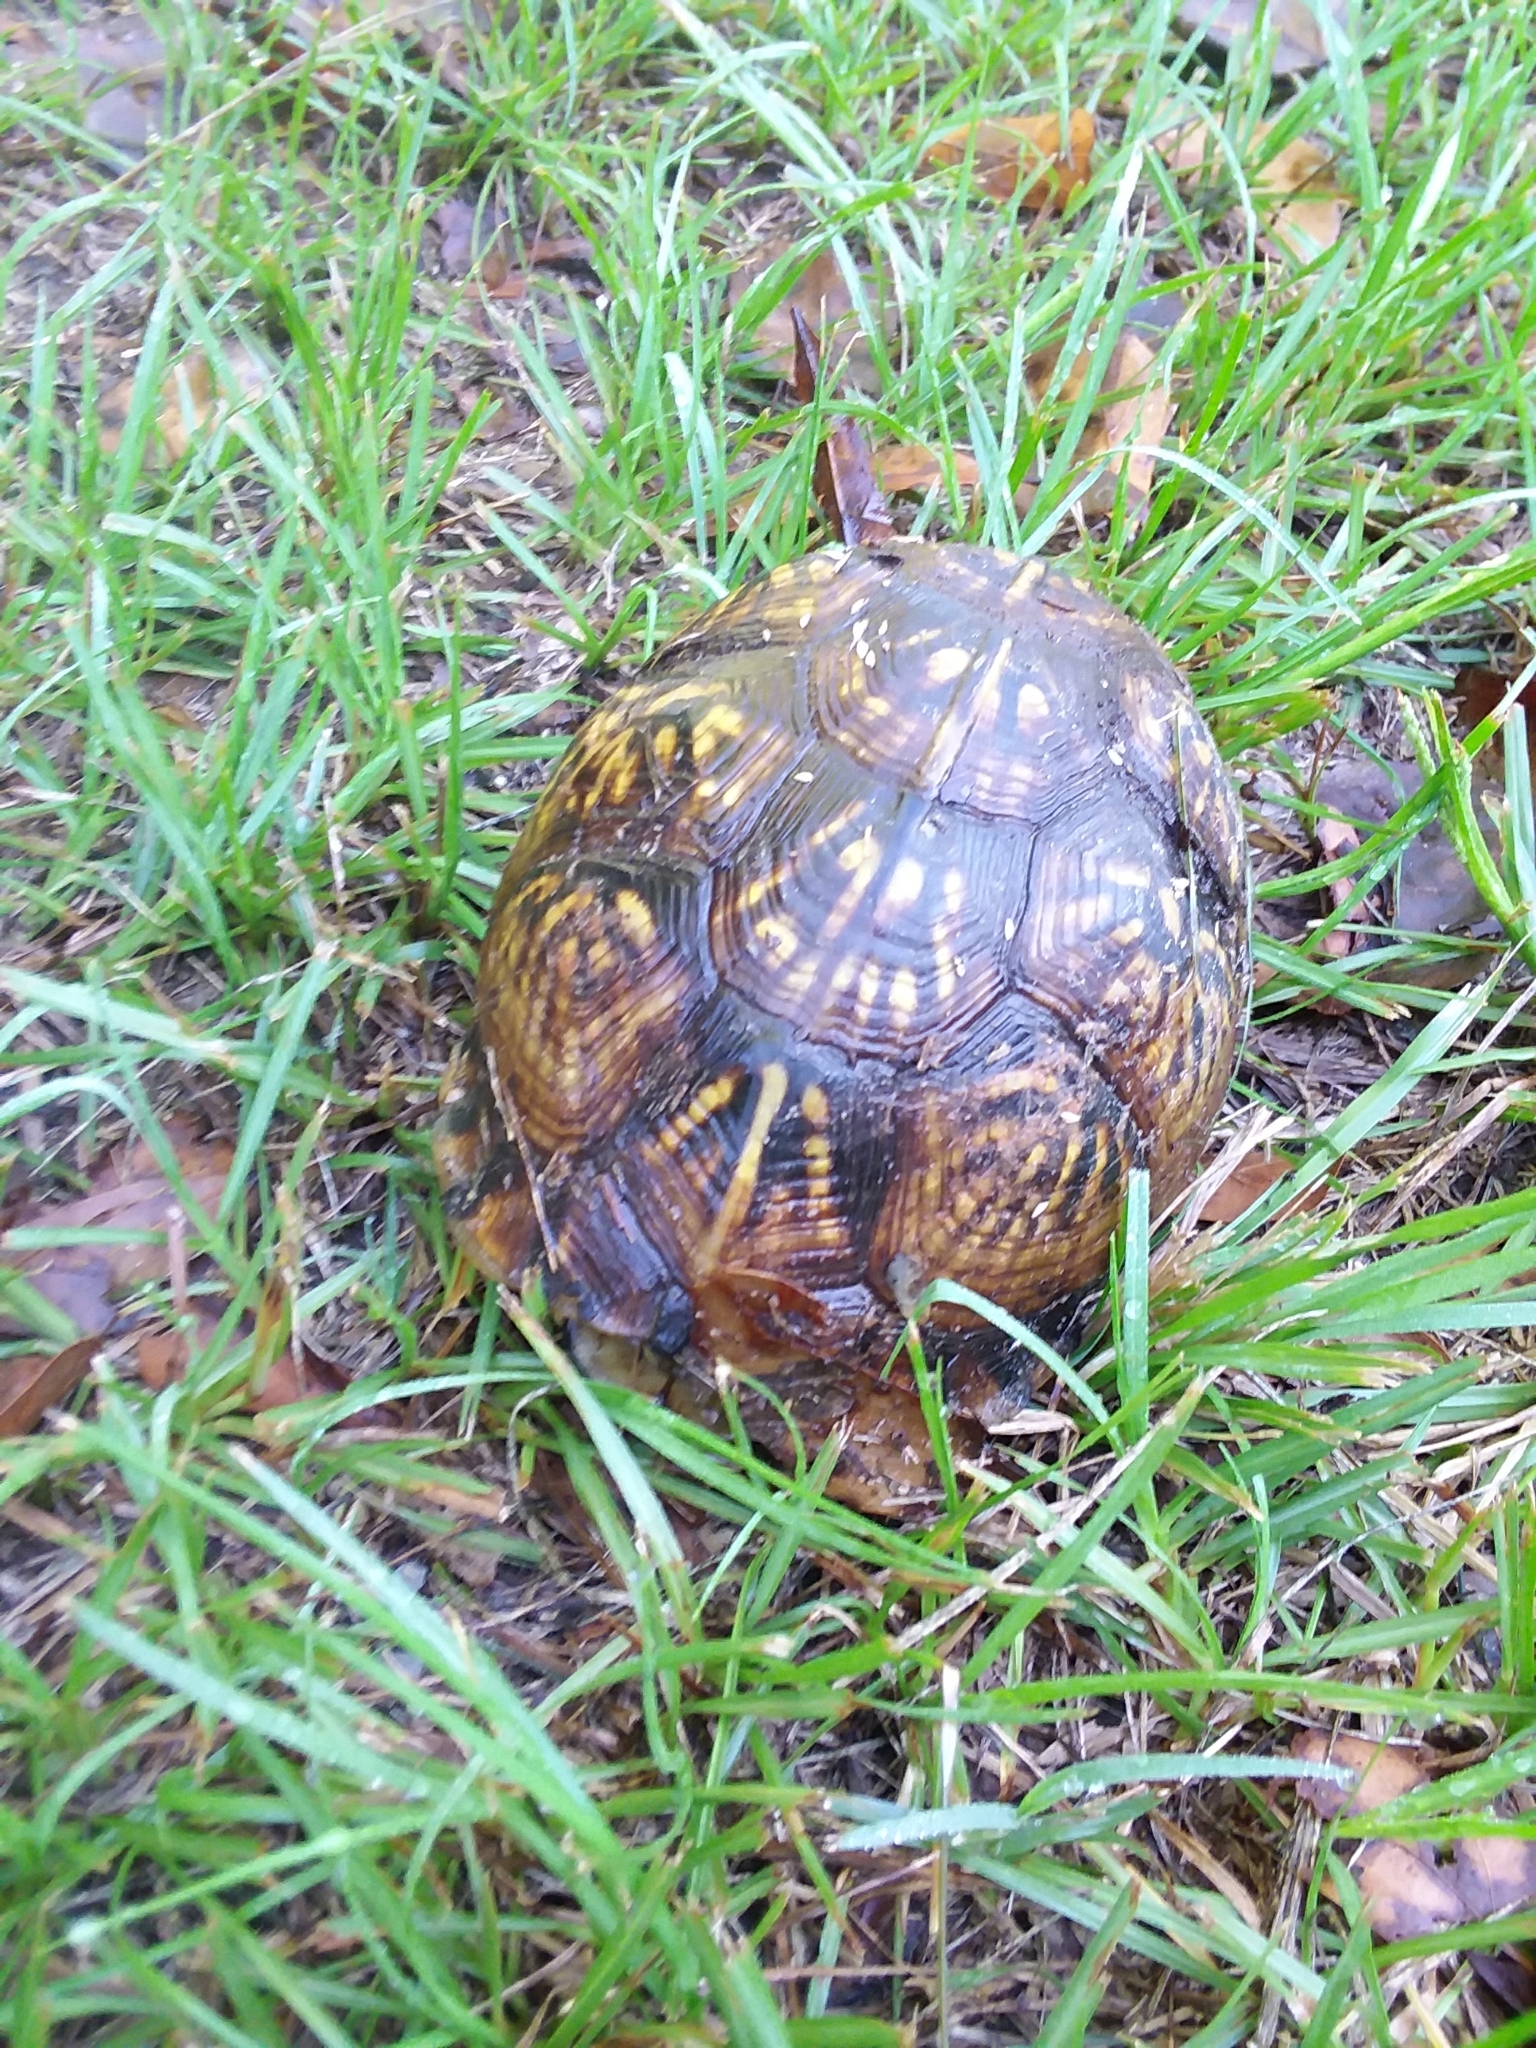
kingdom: Animalia
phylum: Chordata
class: Testudines
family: Emydidae
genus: Terrapene
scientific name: Terrapene carolina
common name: Common box turtle
